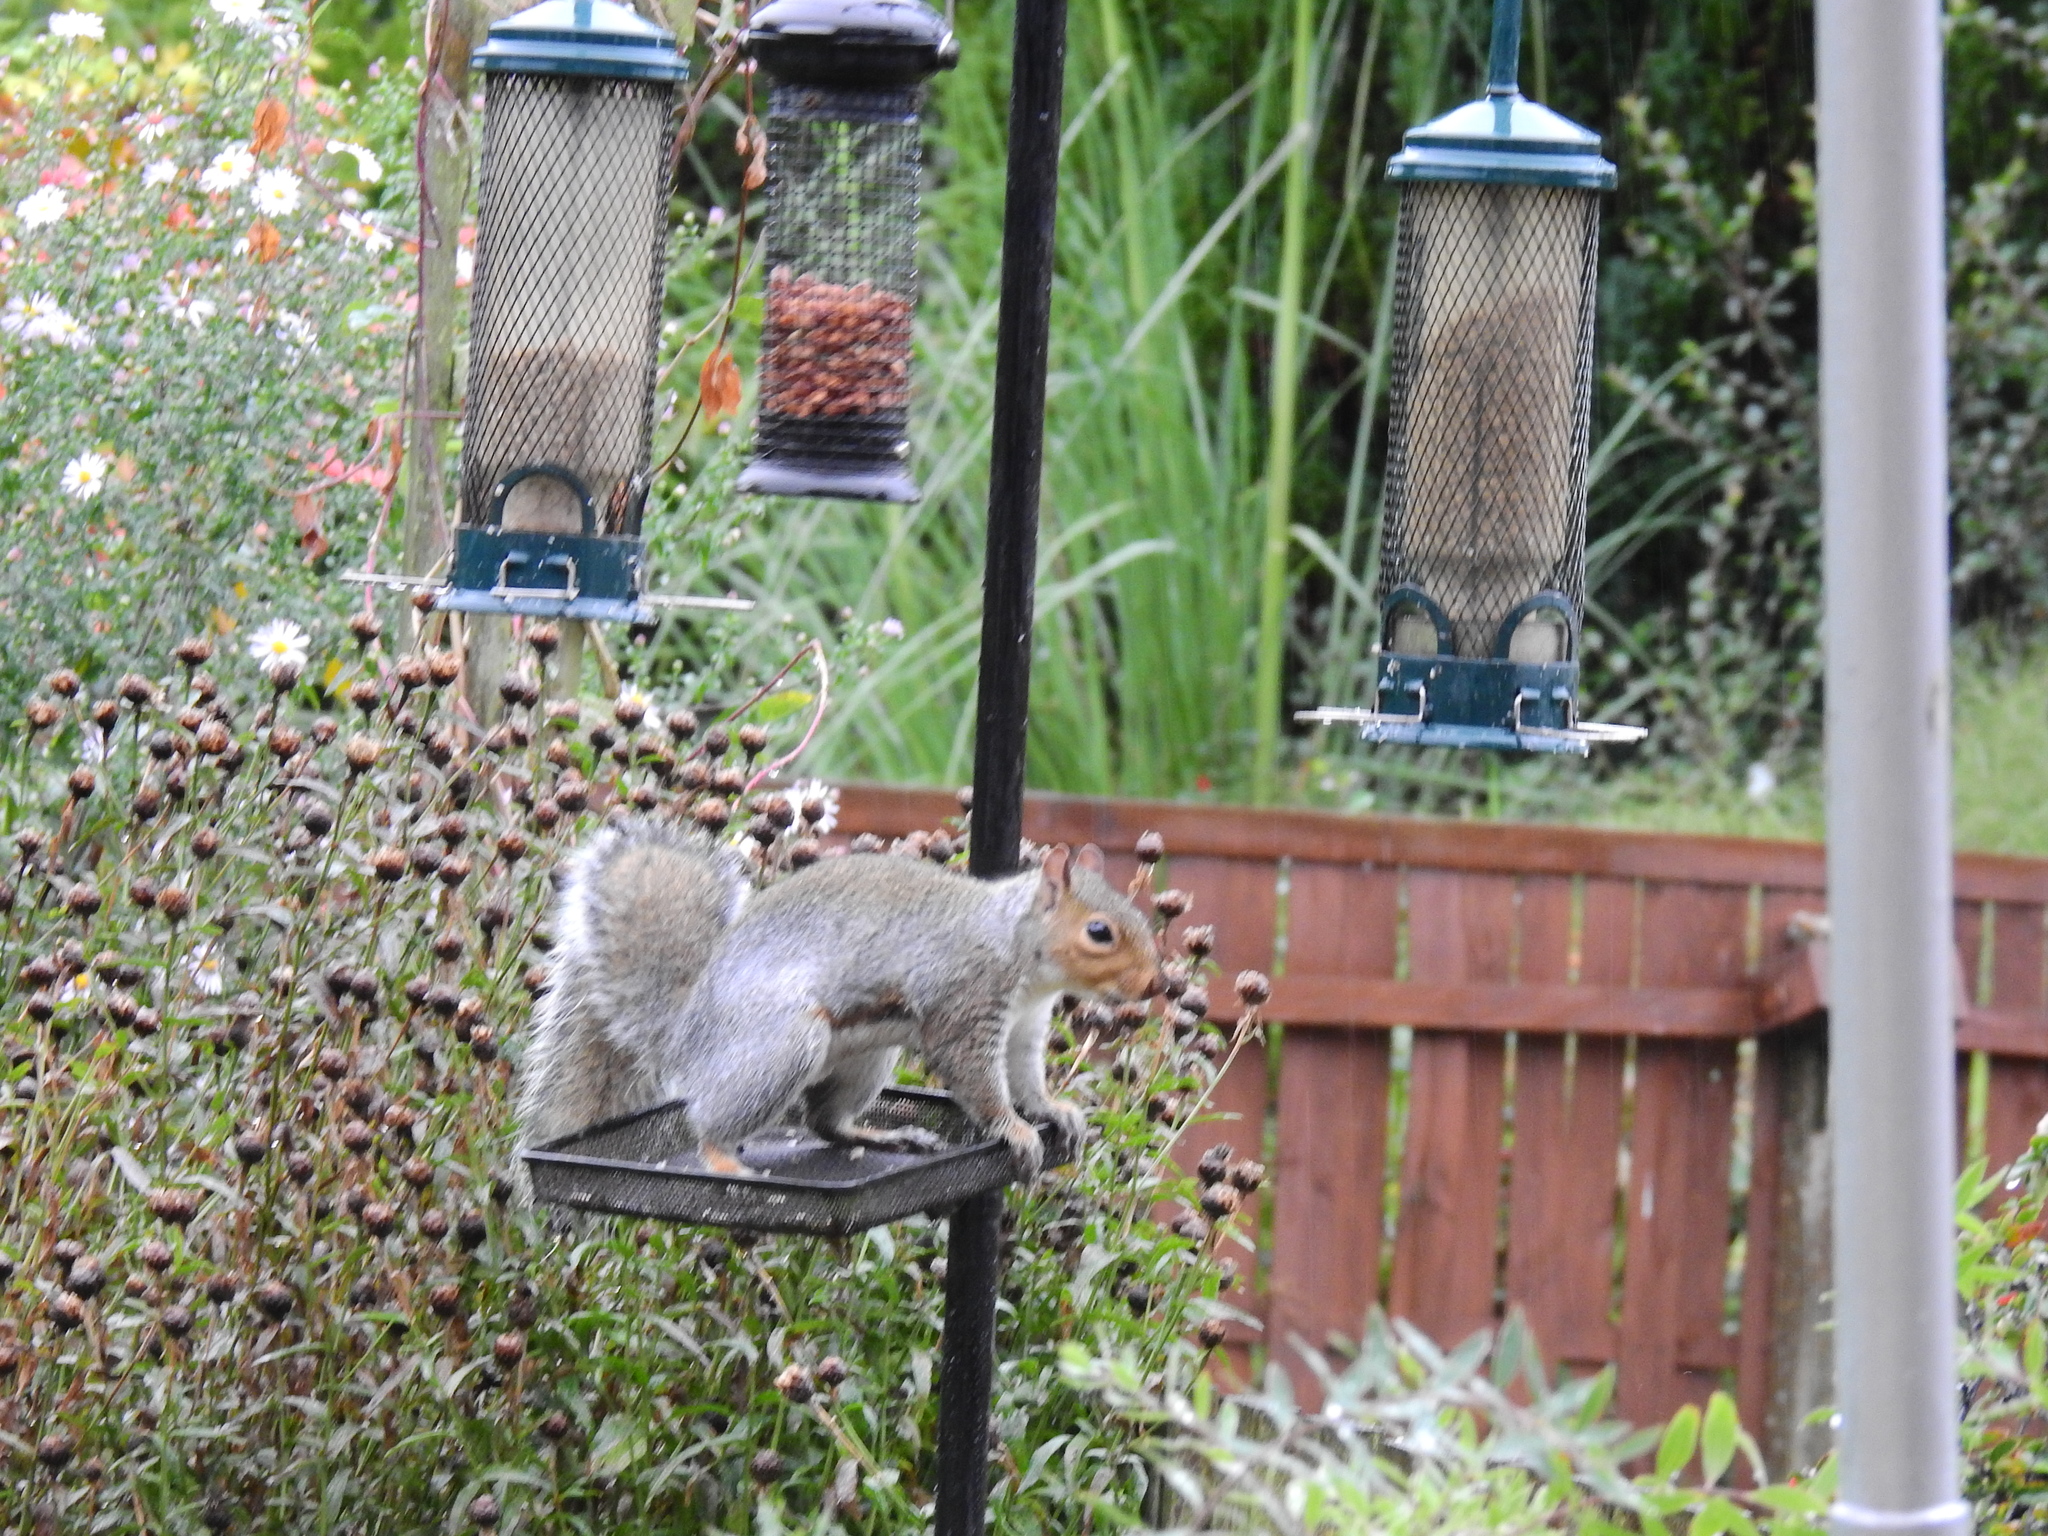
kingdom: Animalia
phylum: Chordata
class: Mammalia
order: Rodentia
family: Sciuridae
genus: Sciurus
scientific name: Sciurus carolinensis
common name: Eastern gray squirrel
